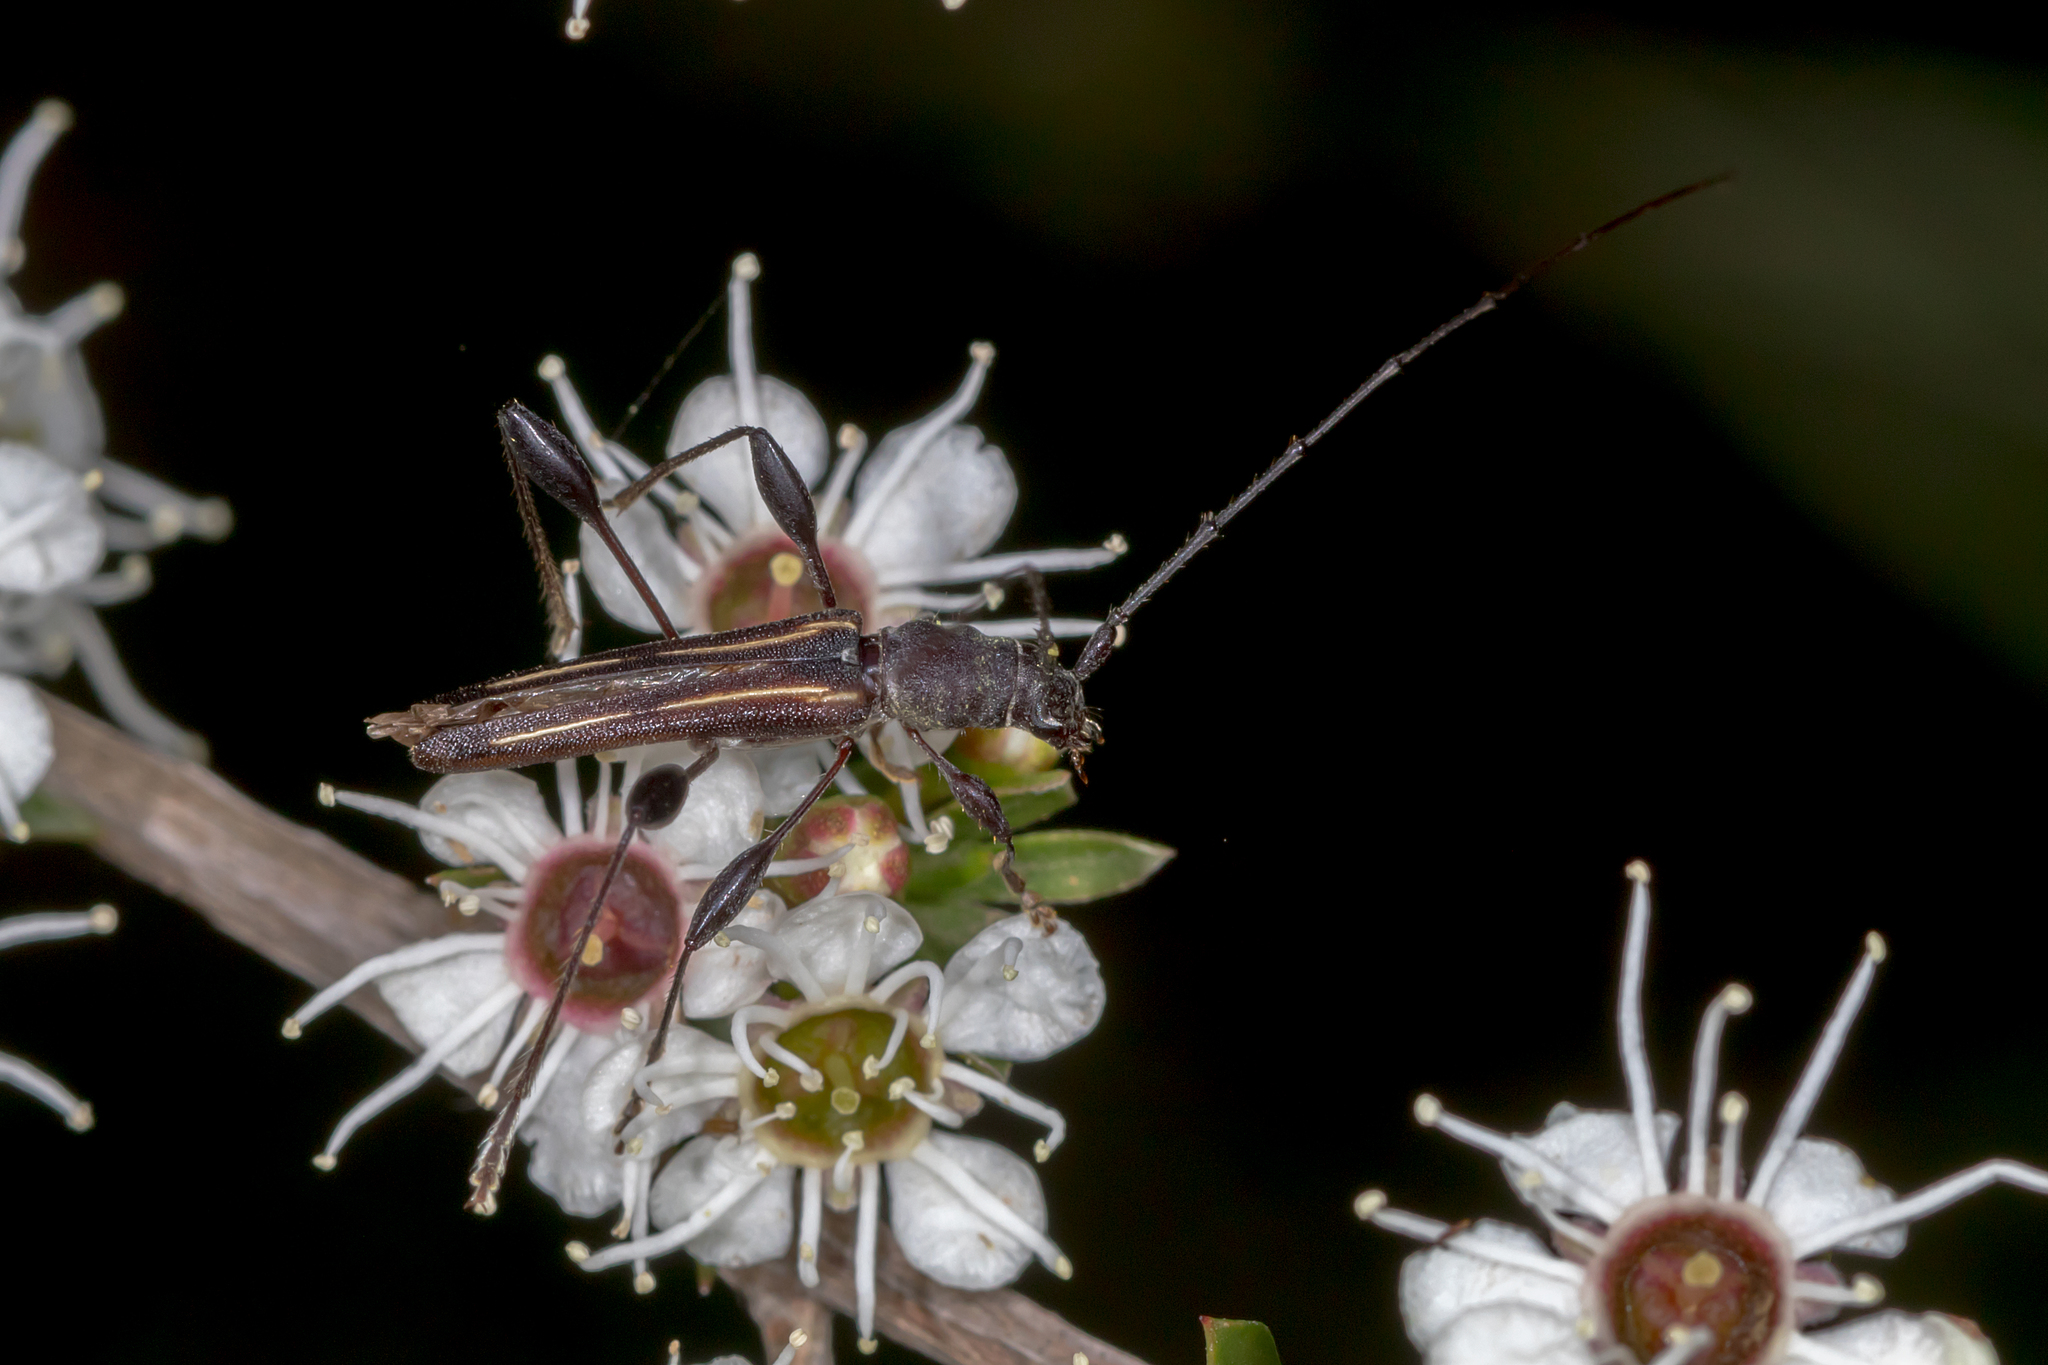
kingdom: Animalia
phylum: Arthropoda
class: Insecta
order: Coleoptera
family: Cerambycidae
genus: Amphirhoe
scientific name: Amphirhoe decora
